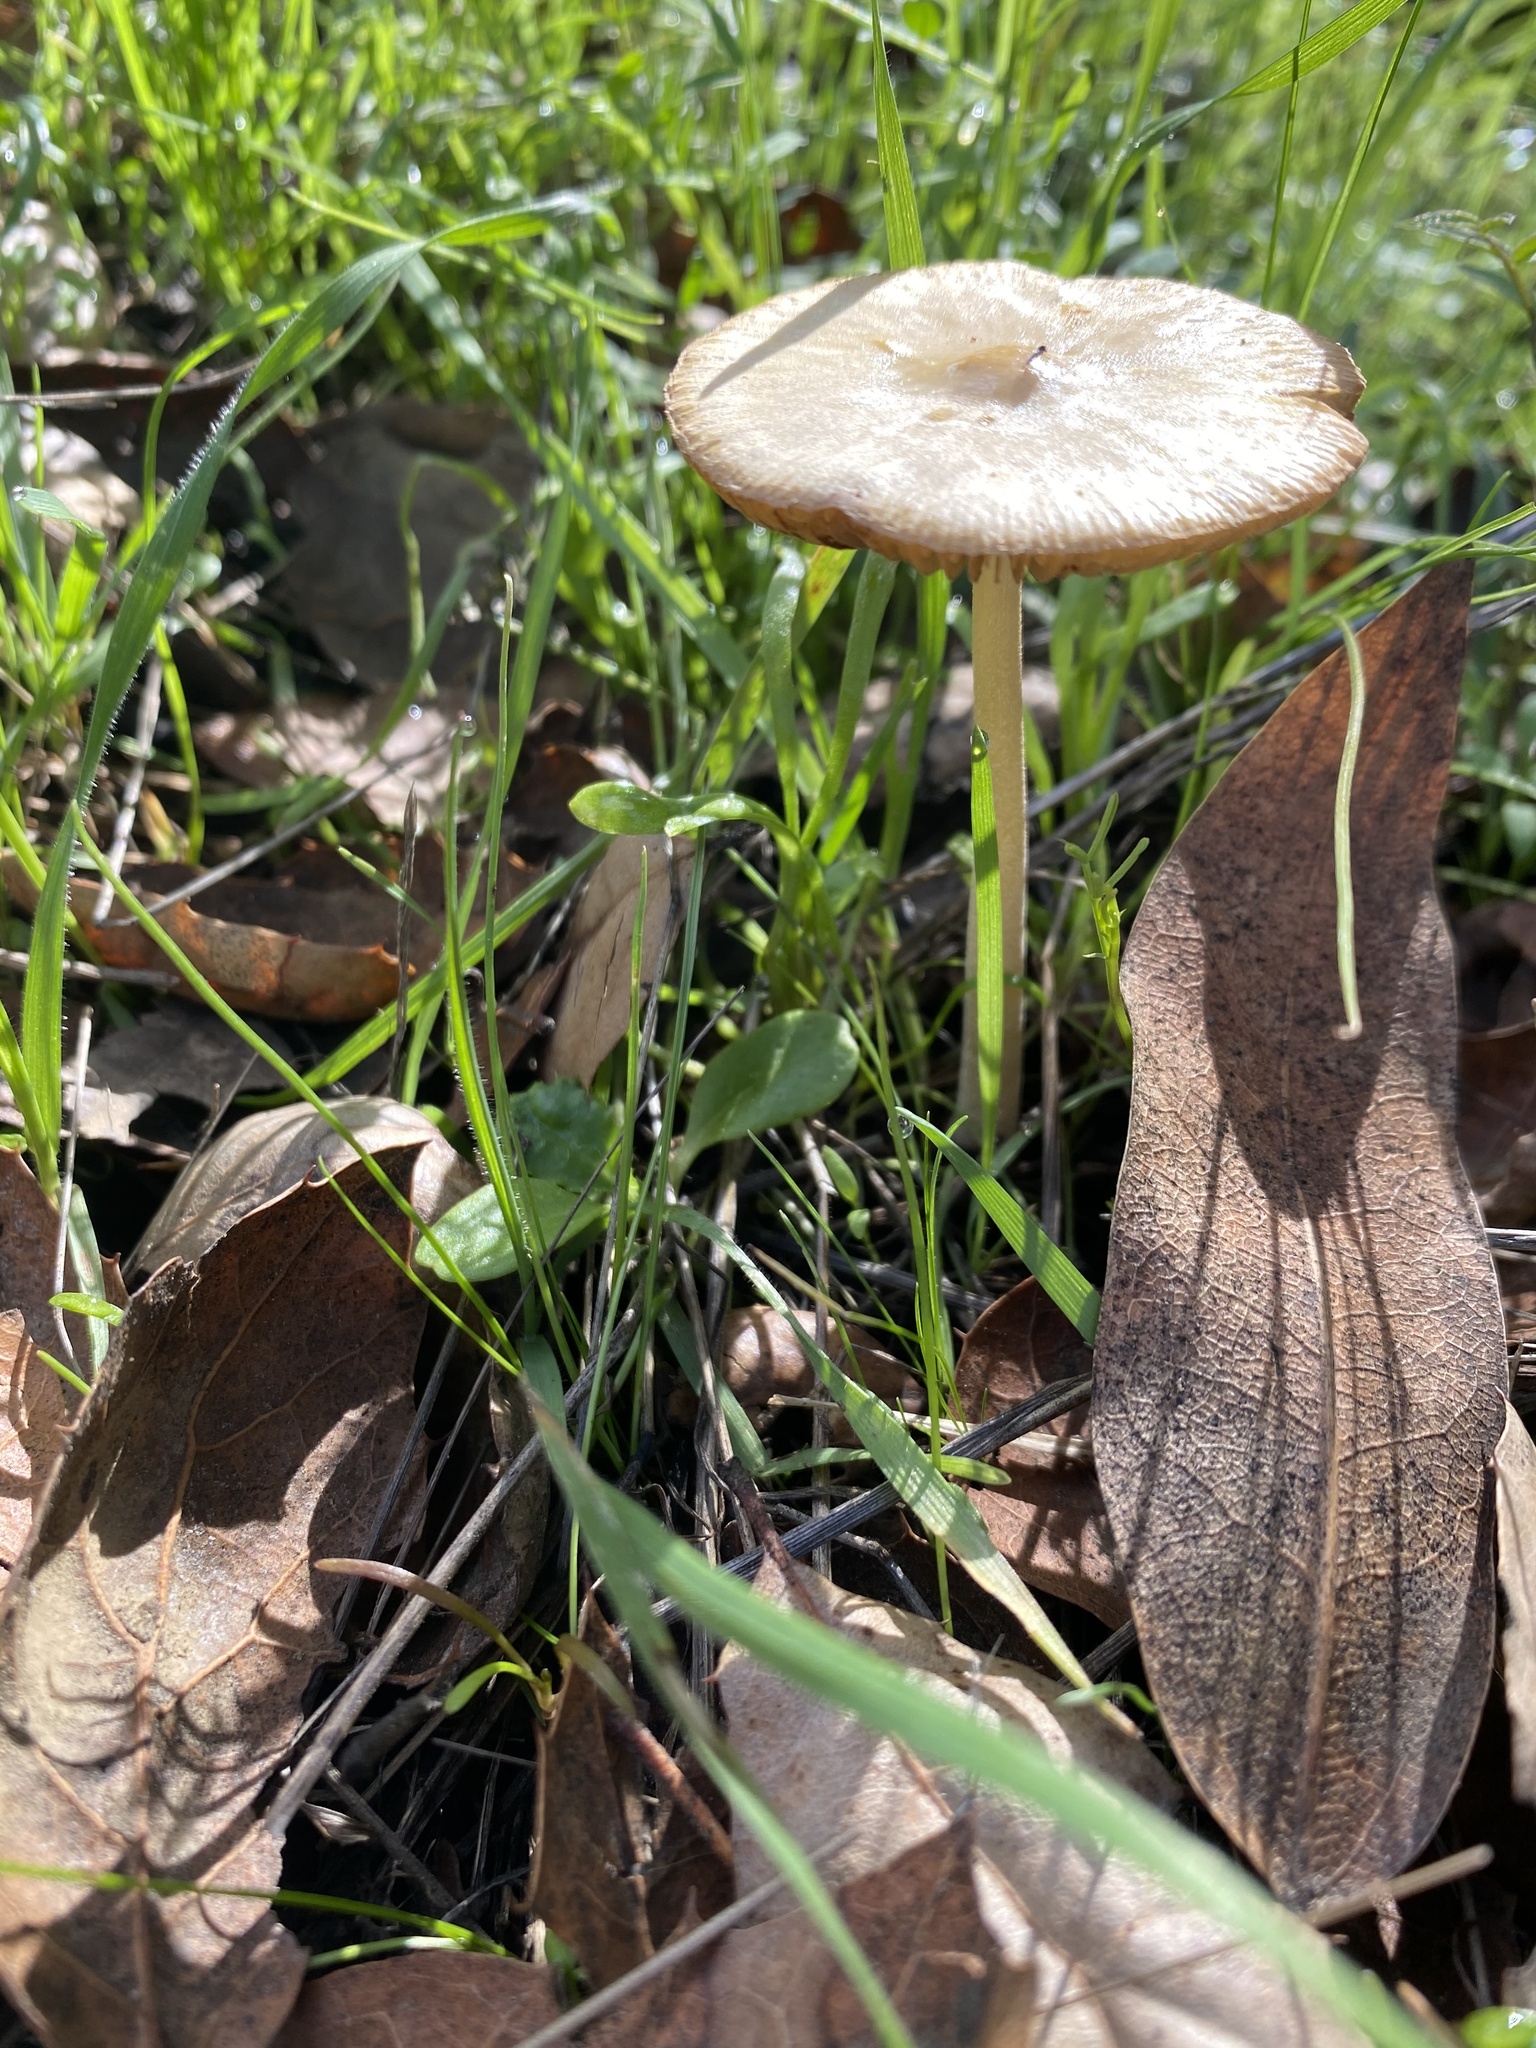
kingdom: Fungi
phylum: Basidiomycota
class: Agaricomycetes
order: Agaricales
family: Bolbitiaceae
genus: Bolbitius
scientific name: Bolbitius titubans
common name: Yellow fieldcap
